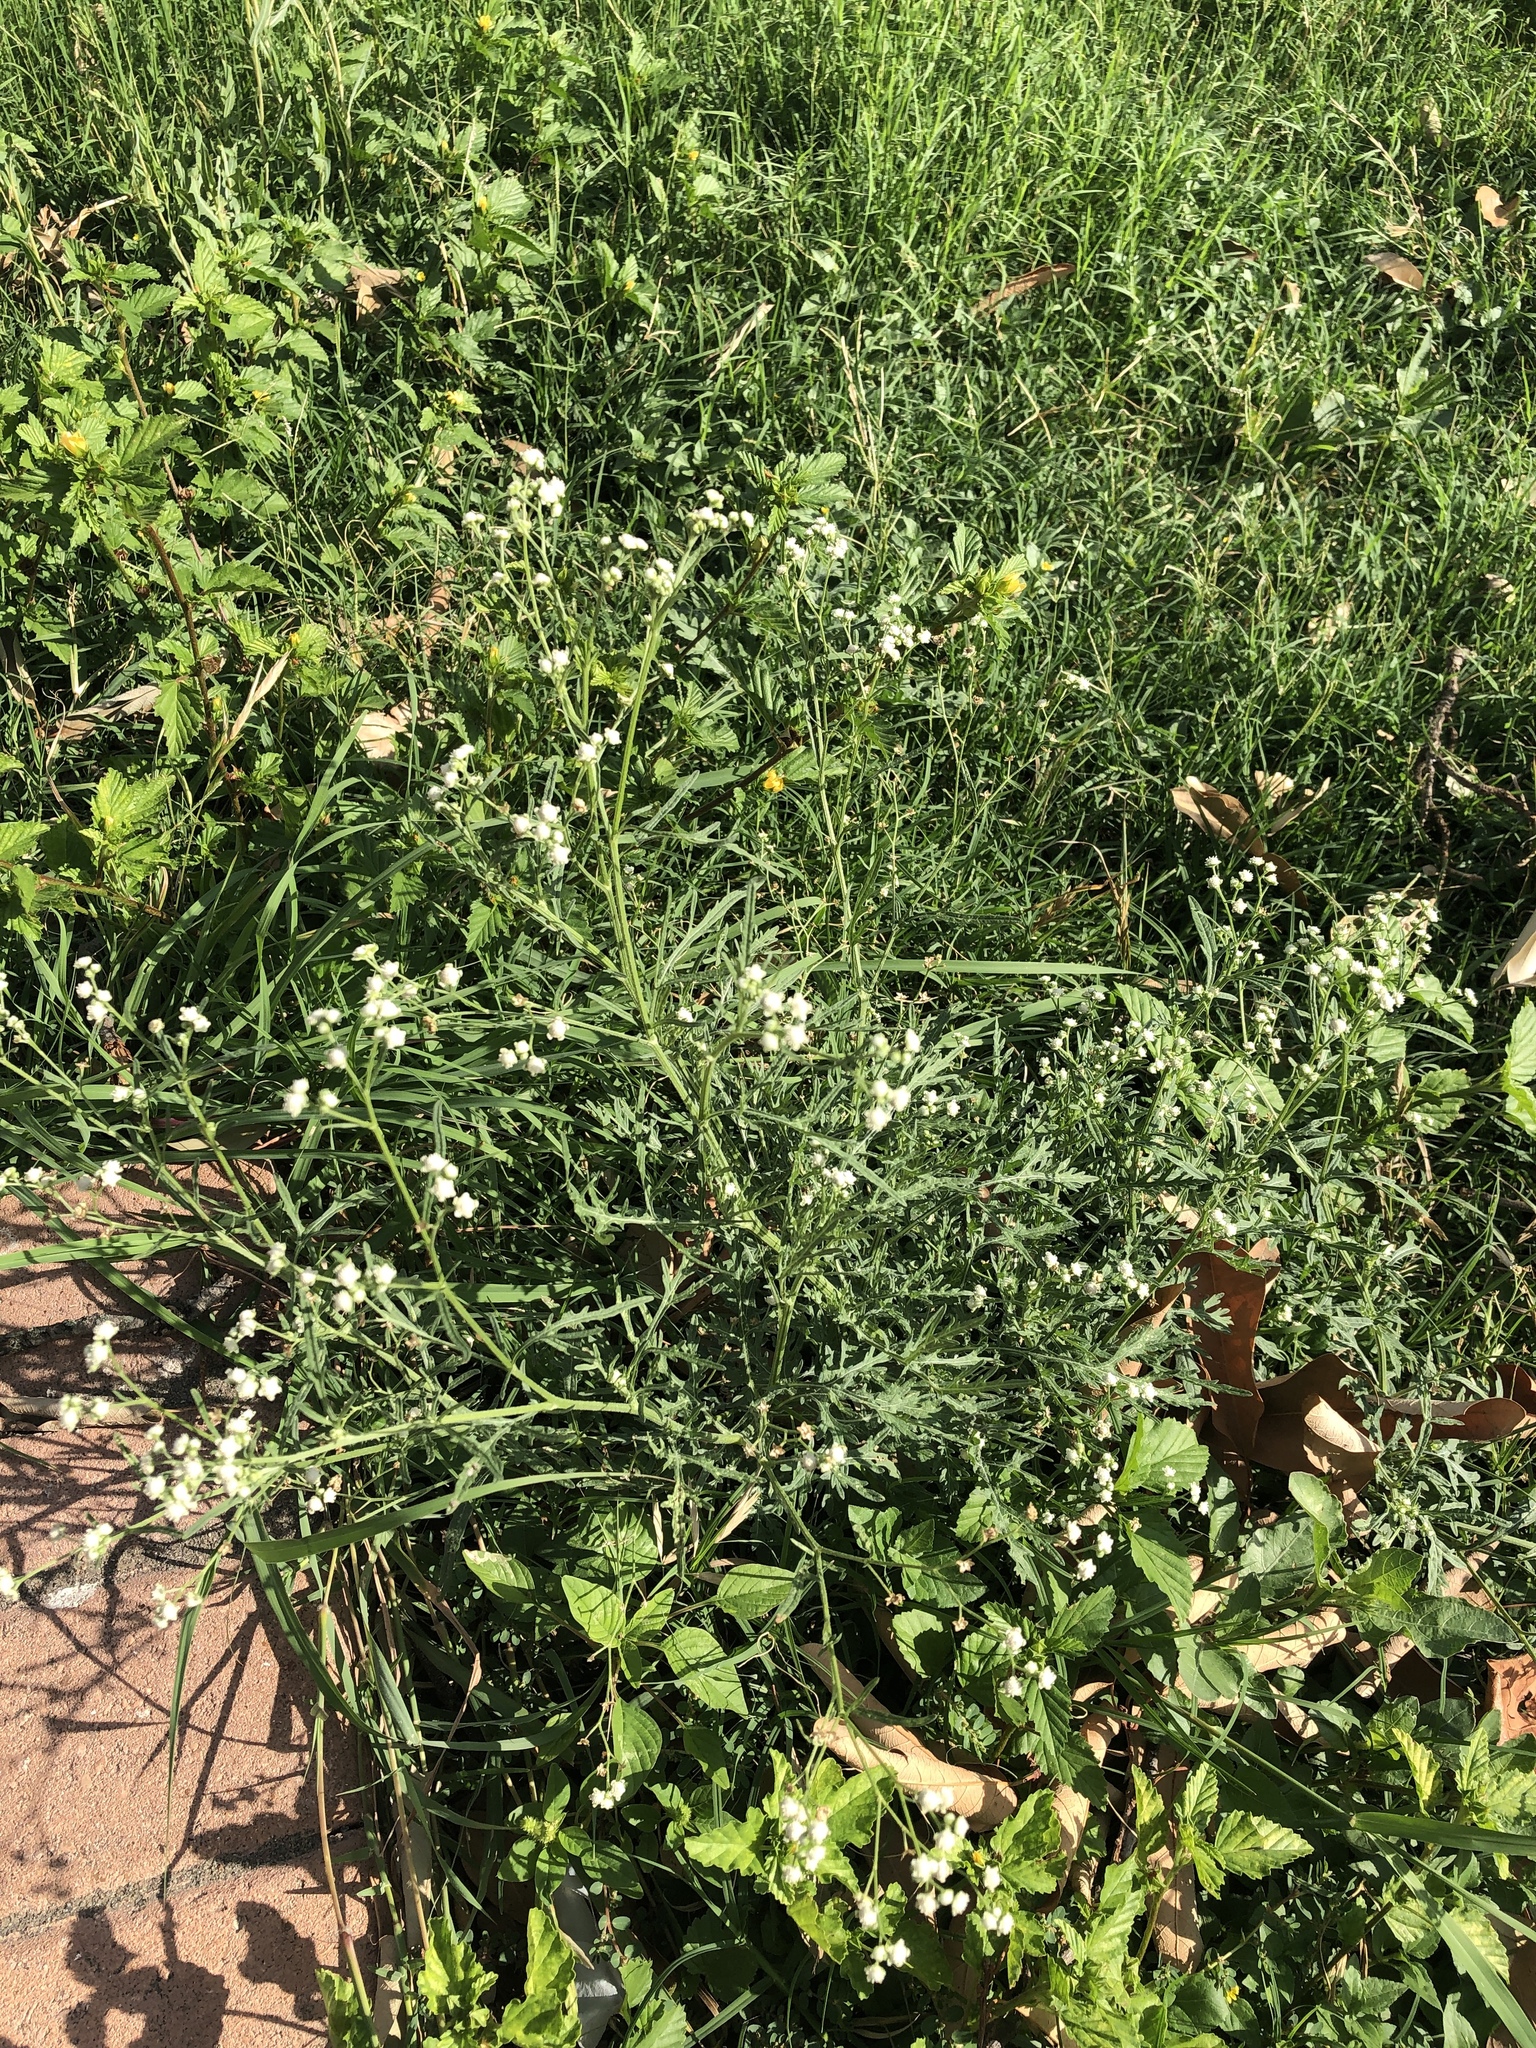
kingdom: Plantae
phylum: Tracheophyta
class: Magnoliopsida
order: Asterales
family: Asteraceae
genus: Parthenium
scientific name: Parthenium hysterophorus
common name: Santa maria feverfew
